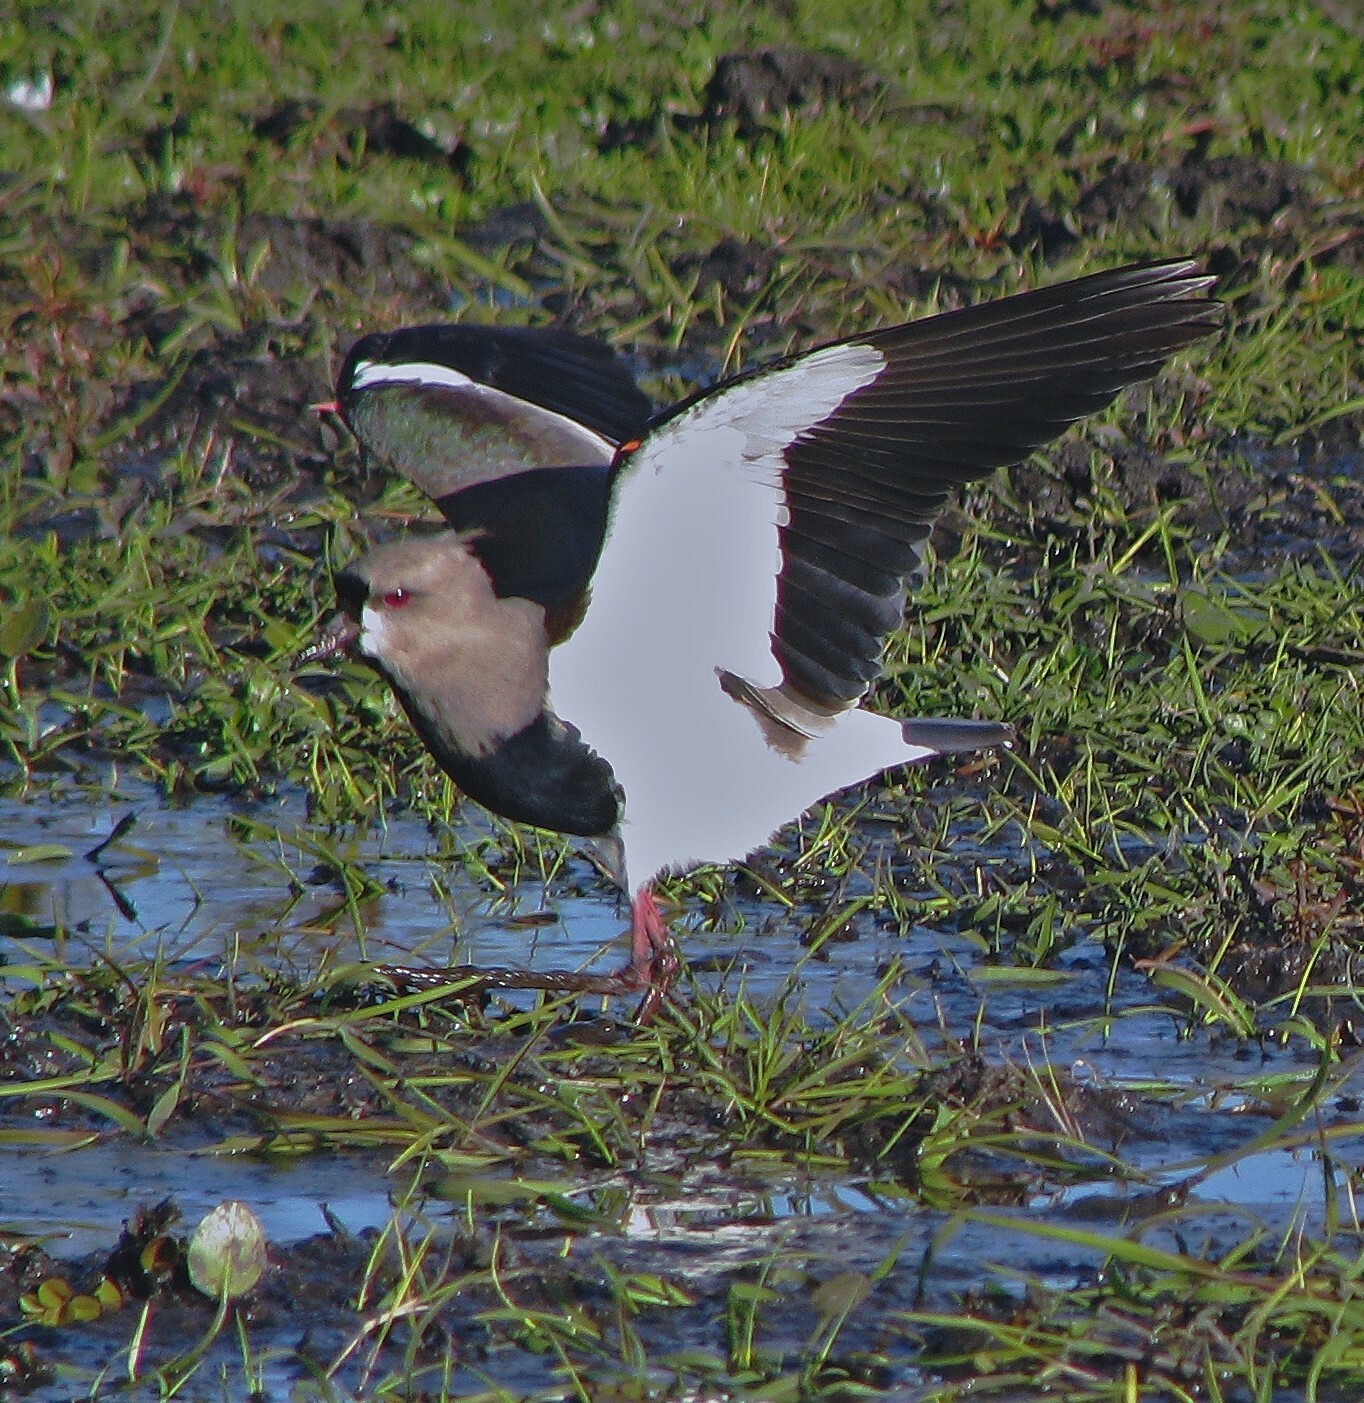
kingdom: Animalia
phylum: Chordata
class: Aves
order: Charadriiformes
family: Charadriidae
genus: Vanellus
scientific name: Vanellus chilensis
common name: Southern lapwing
